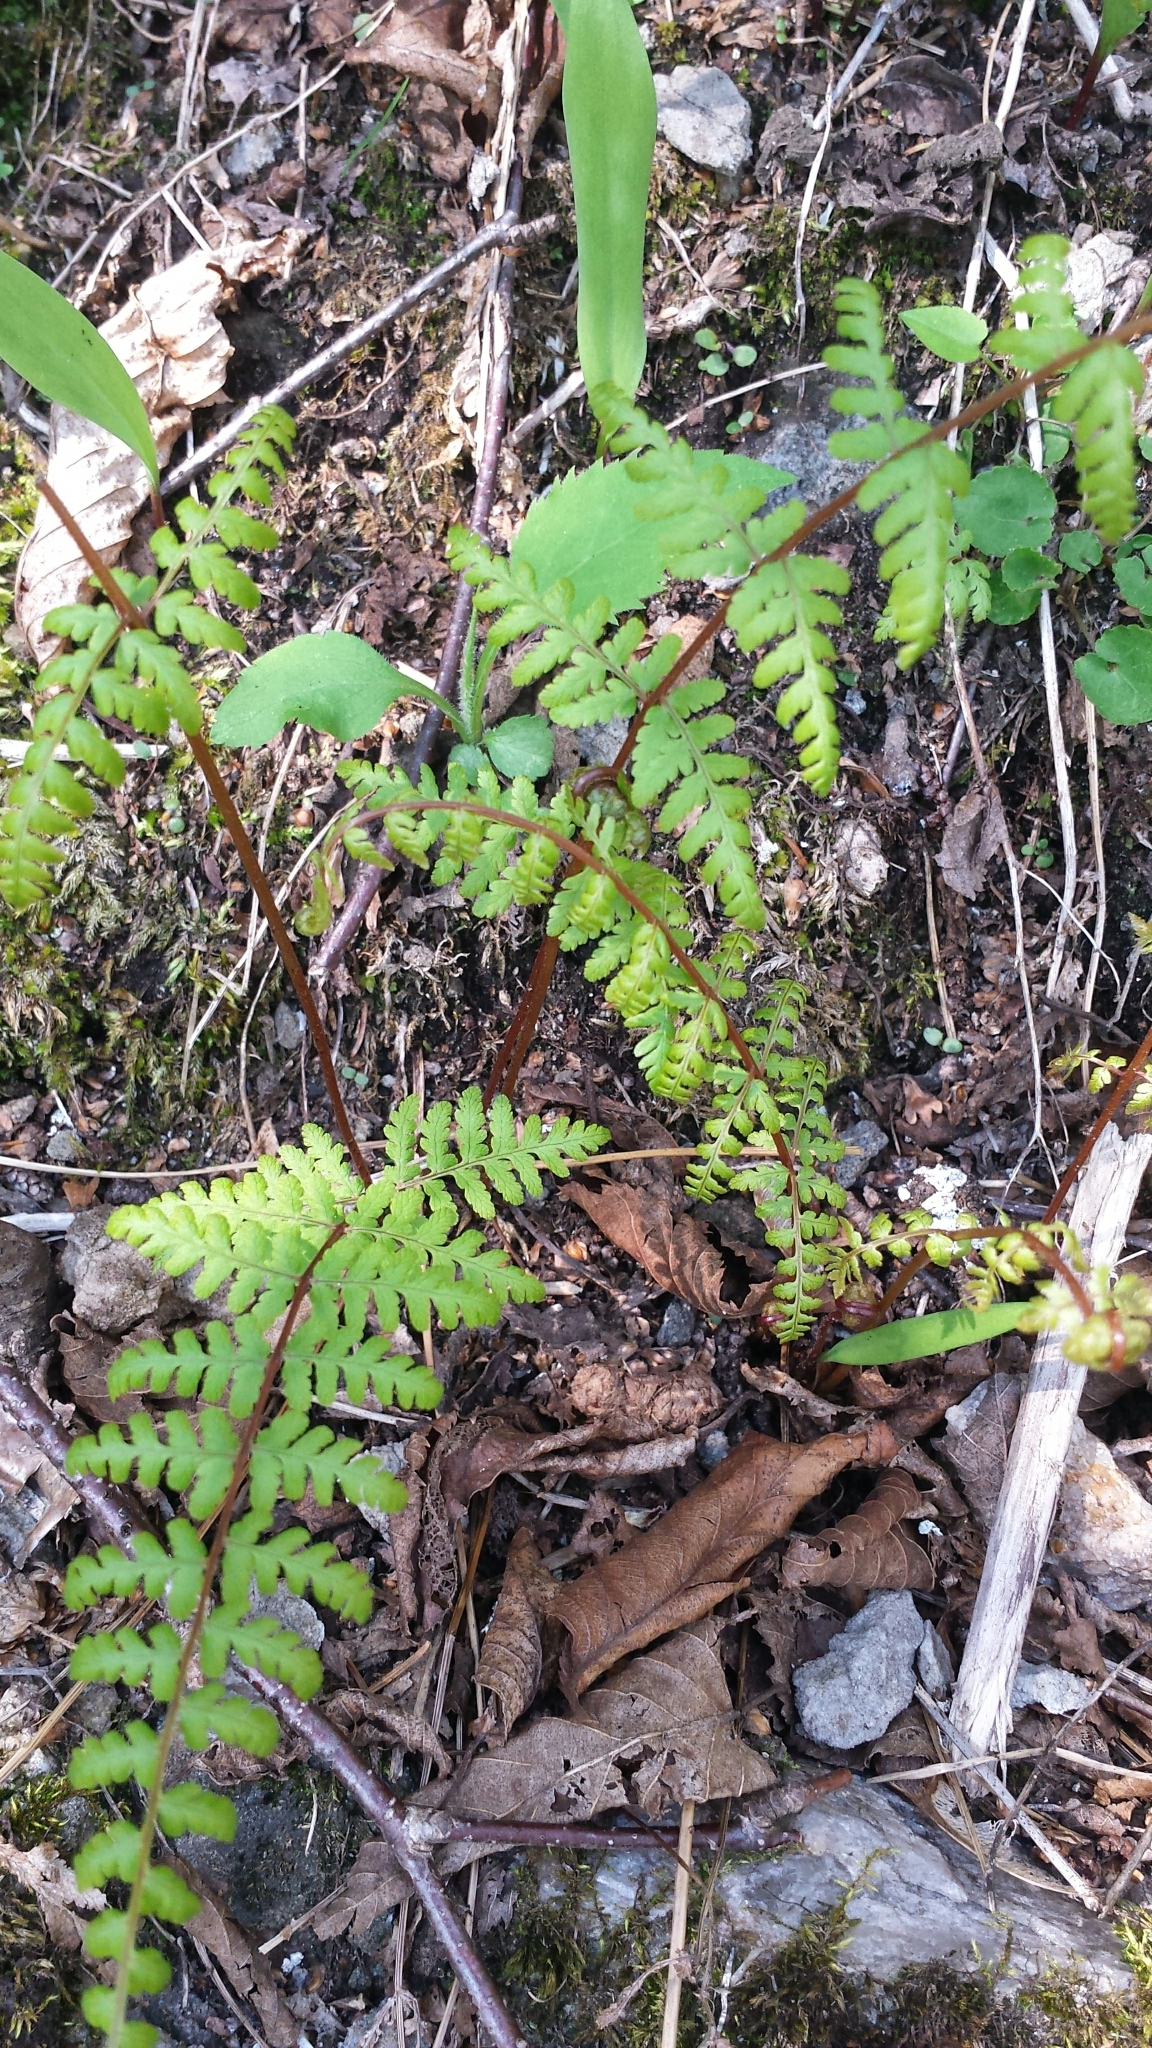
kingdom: Plantae
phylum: Tracheophyta
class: Polypodiopsida
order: Polypodiales
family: Cystopteridaceae
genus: Cystopteris
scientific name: Cystopteris bulbifera
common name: Bulblet bladder fern
